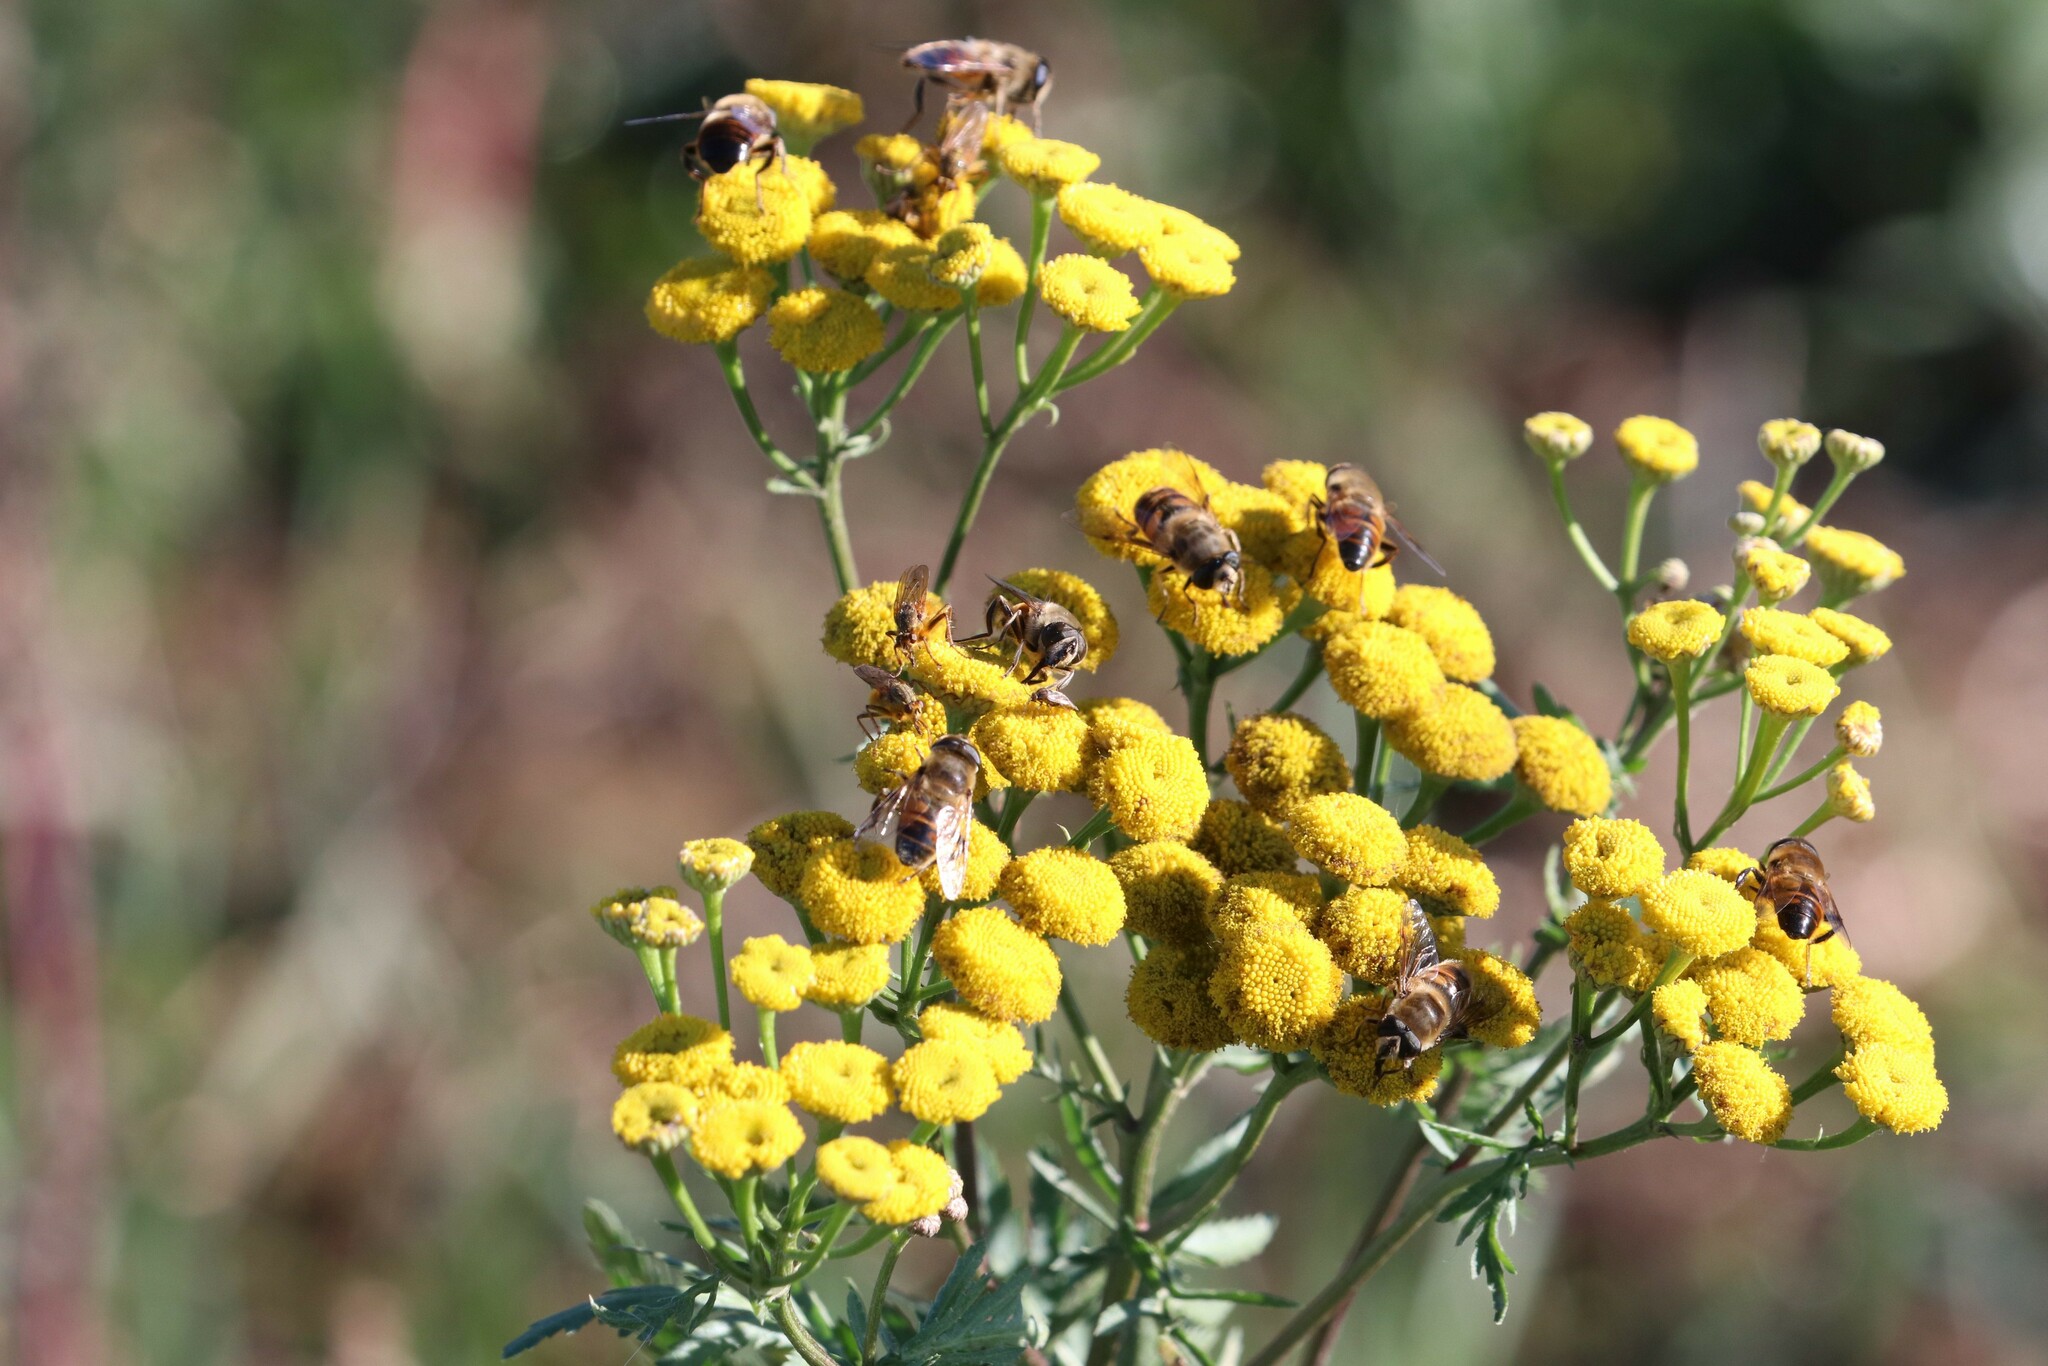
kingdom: Plantae
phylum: Tracheophyta
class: Magnoliopsida
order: Asterales
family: Asteraceae
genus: Tanacetum
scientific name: Tanacetum vulgare
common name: Common tansy
